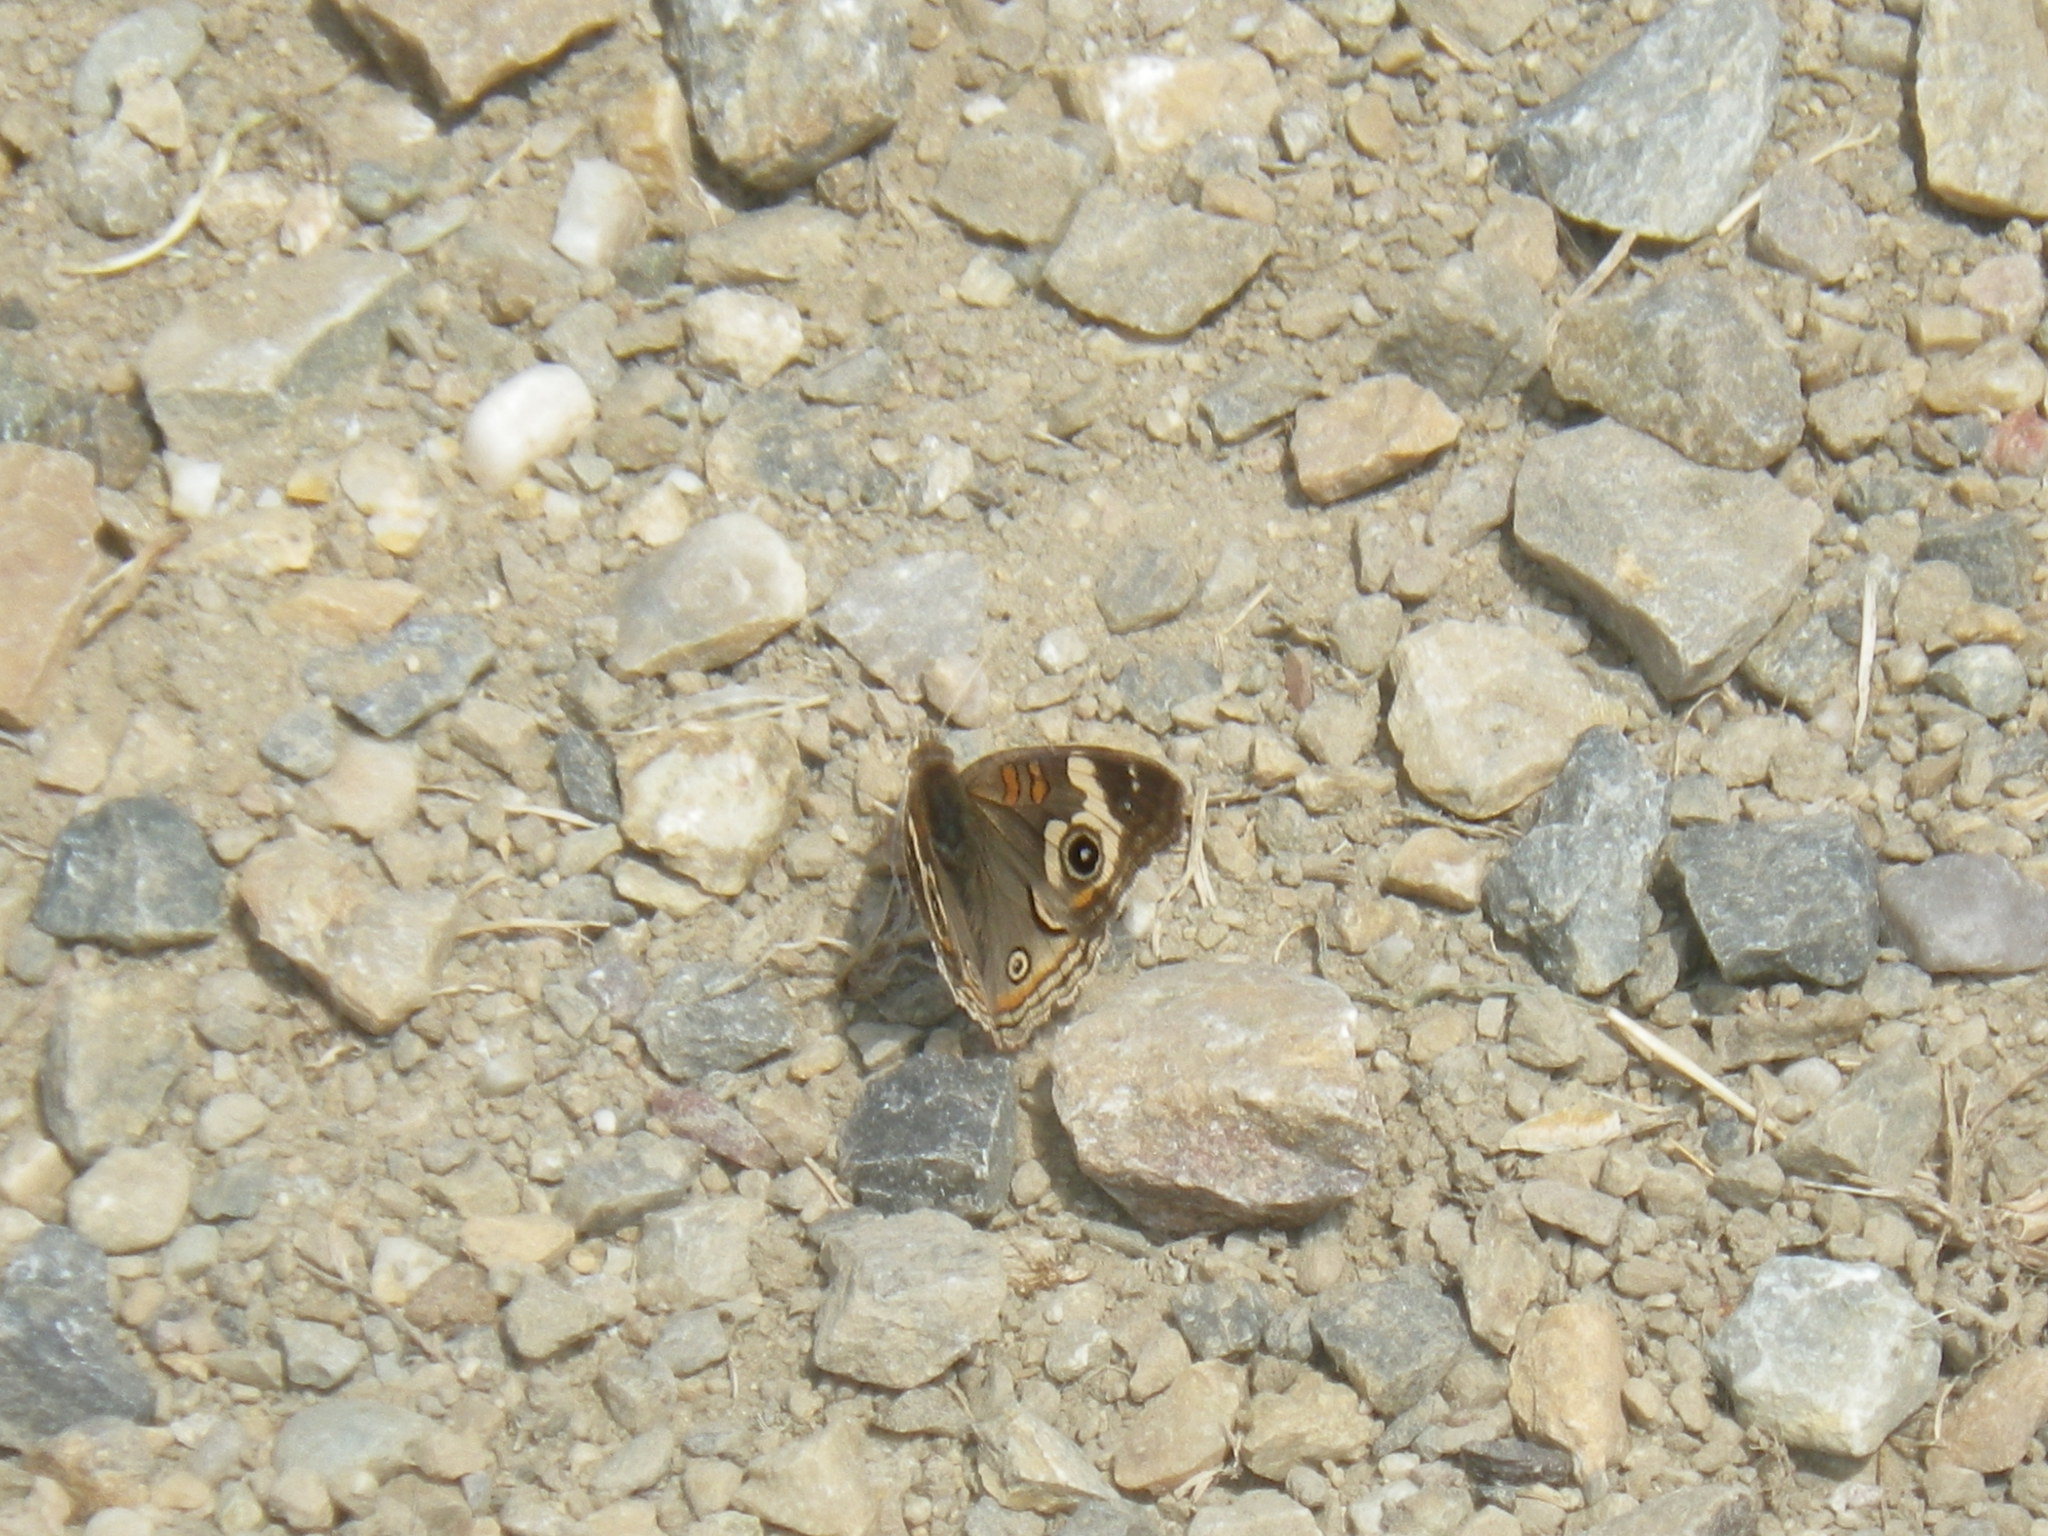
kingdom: Animalia
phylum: Arthropoda
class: Insecta
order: Lepidoptera
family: Nymphalidae
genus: Junonia
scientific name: Junonia grisea
